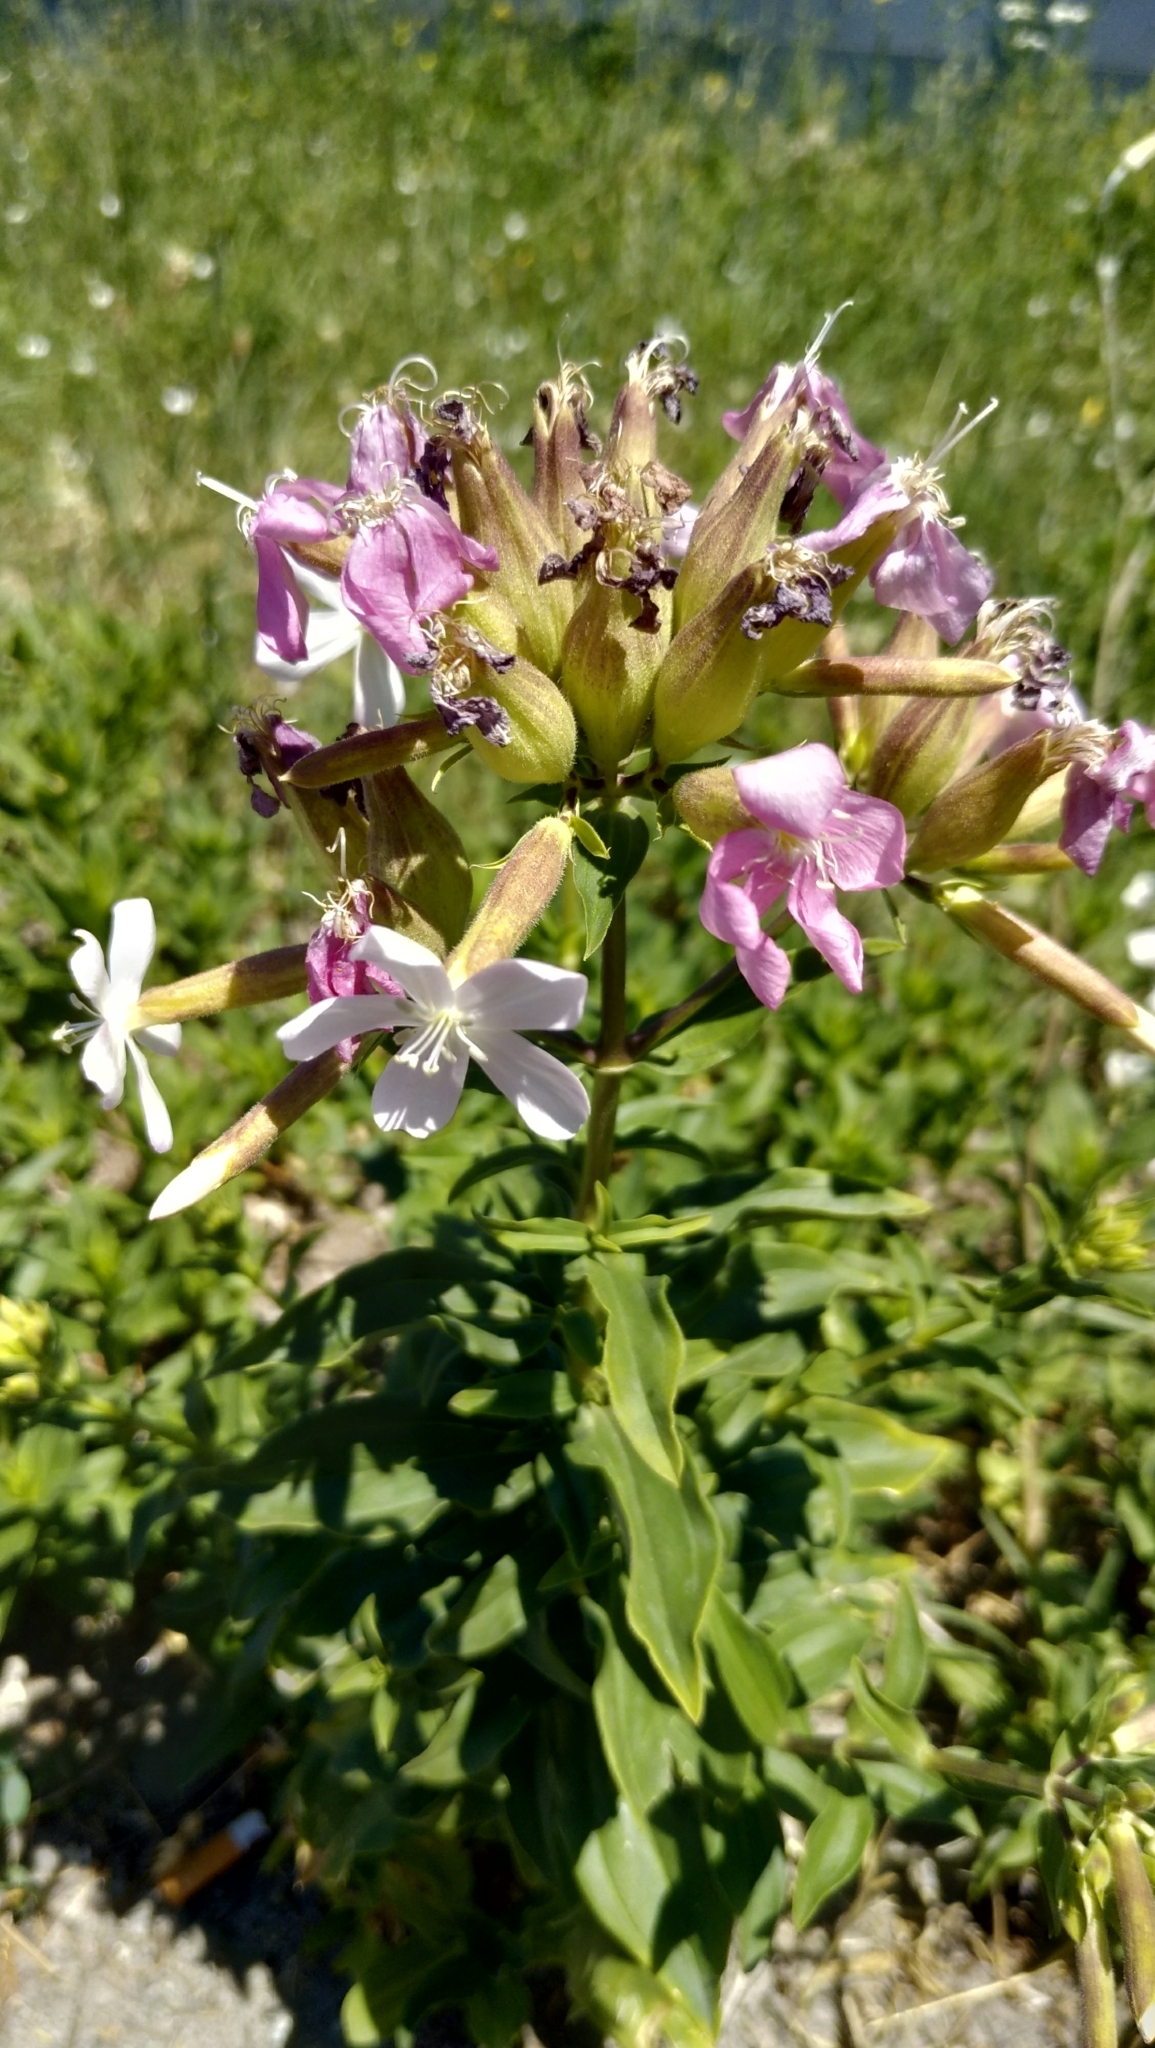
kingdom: Plantae
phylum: Tracheophyta
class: Magnoliopsida
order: Caryophyllales
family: Caryophyllaceae
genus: Saponaria
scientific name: Saponaria officinalis
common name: Soapwort
